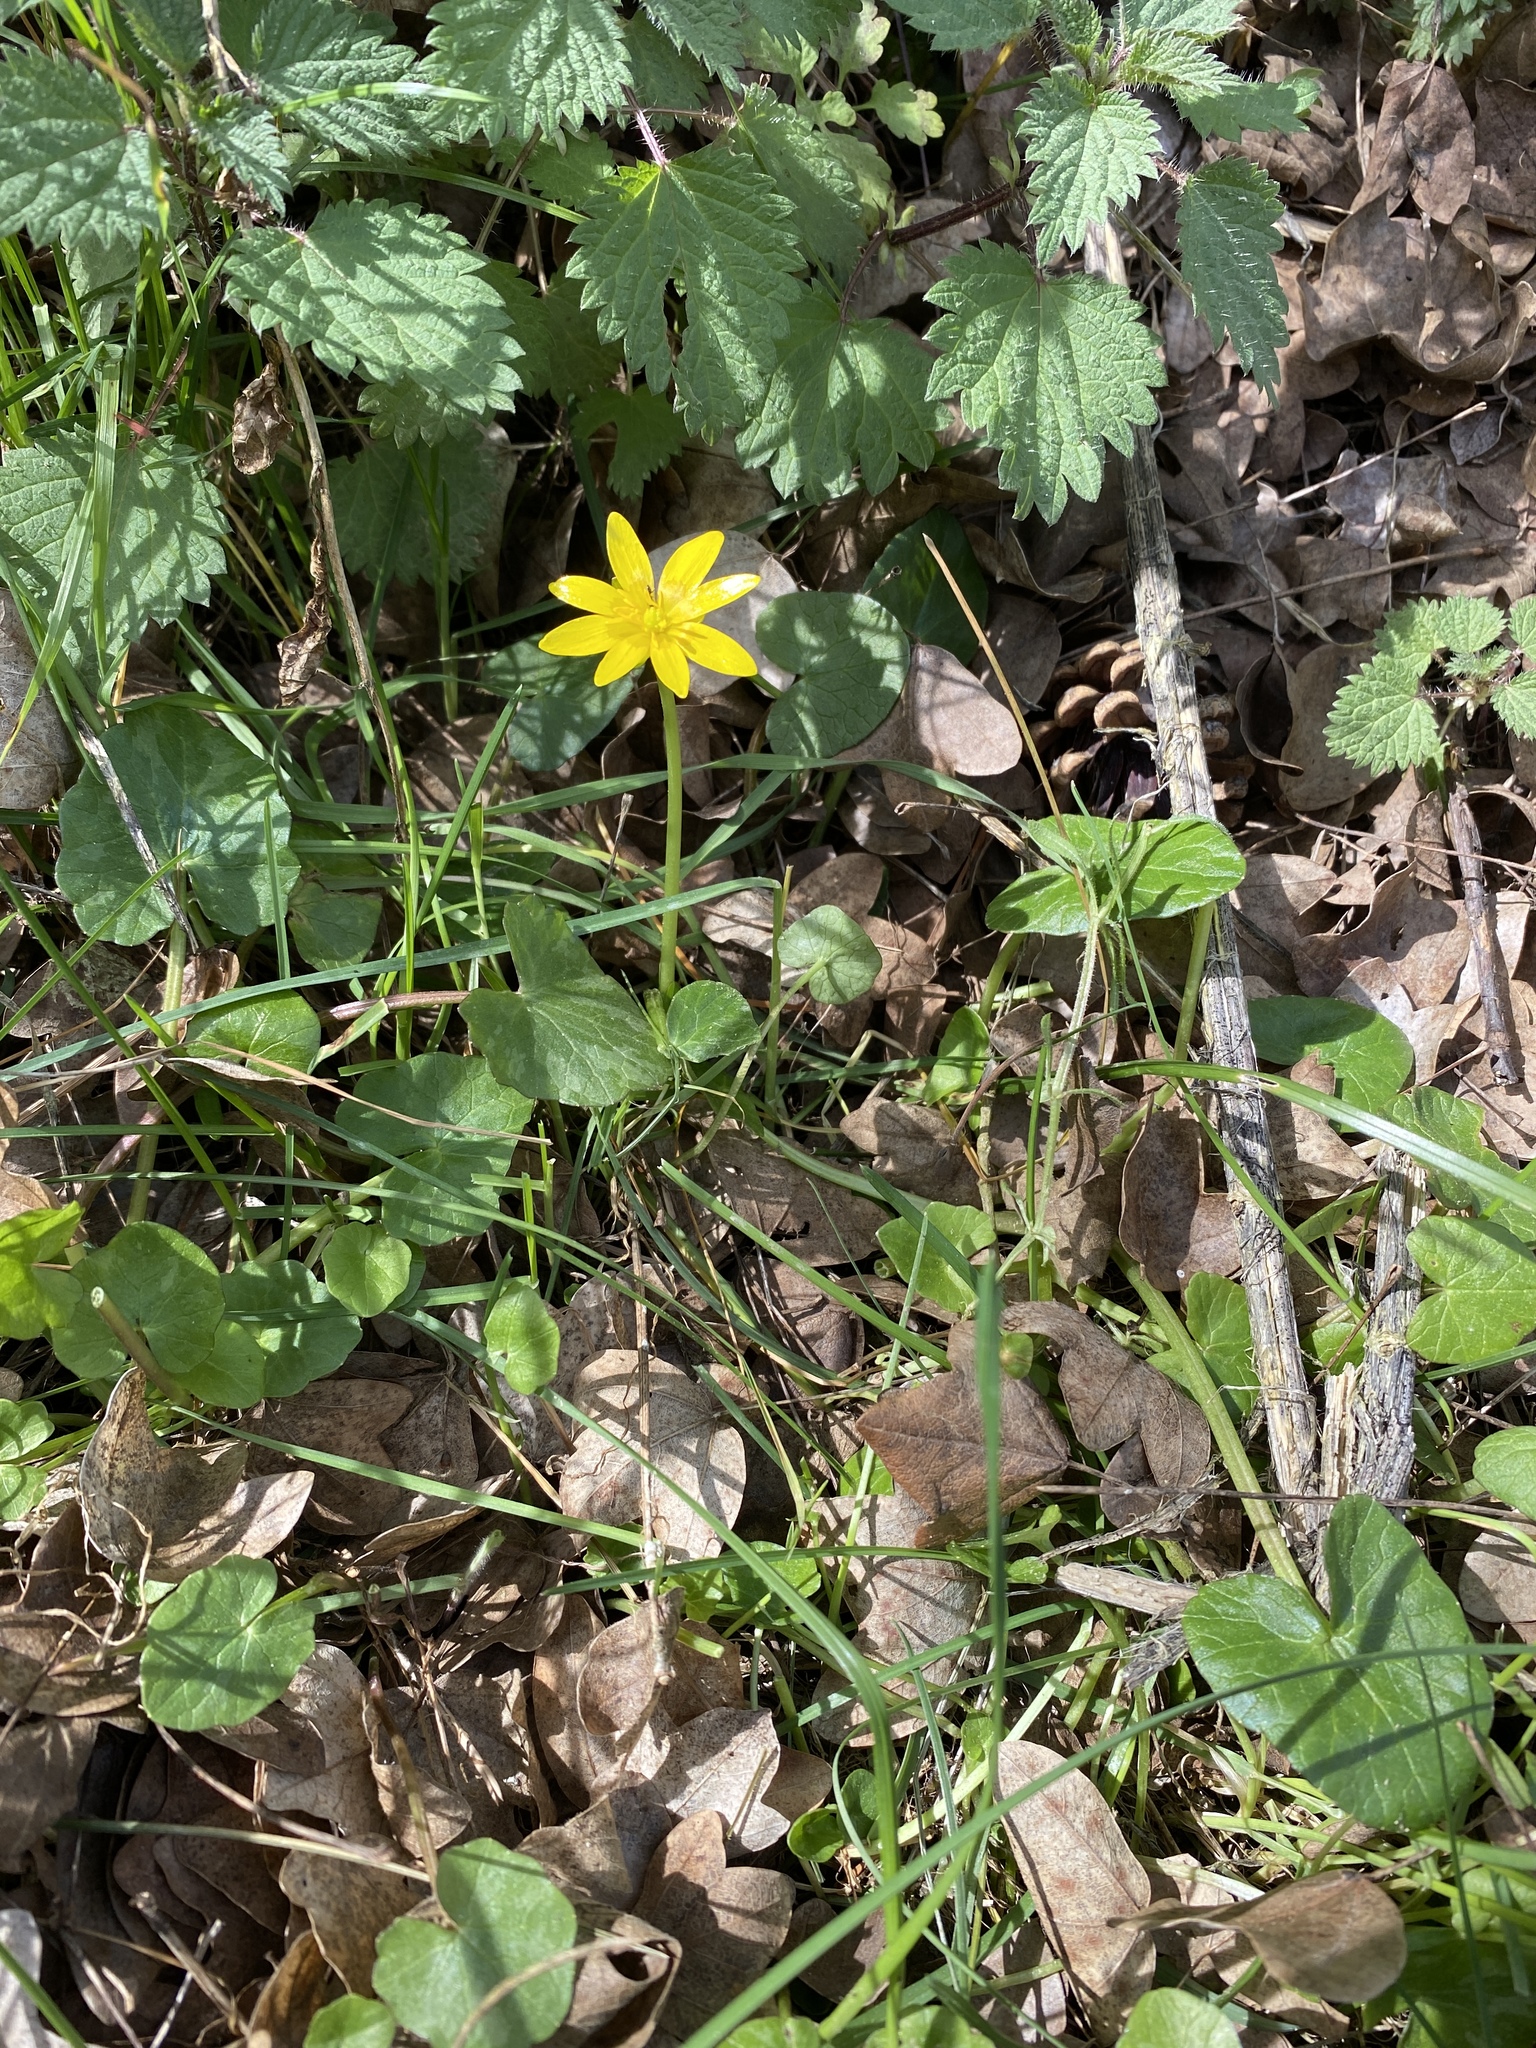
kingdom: Plantae
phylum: Tracheophyta
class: Magnoliopsida
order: Ranunculales
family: Ranunculaceae
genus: Ficaria
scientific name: Ficaria verna
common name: Lesser celandine
